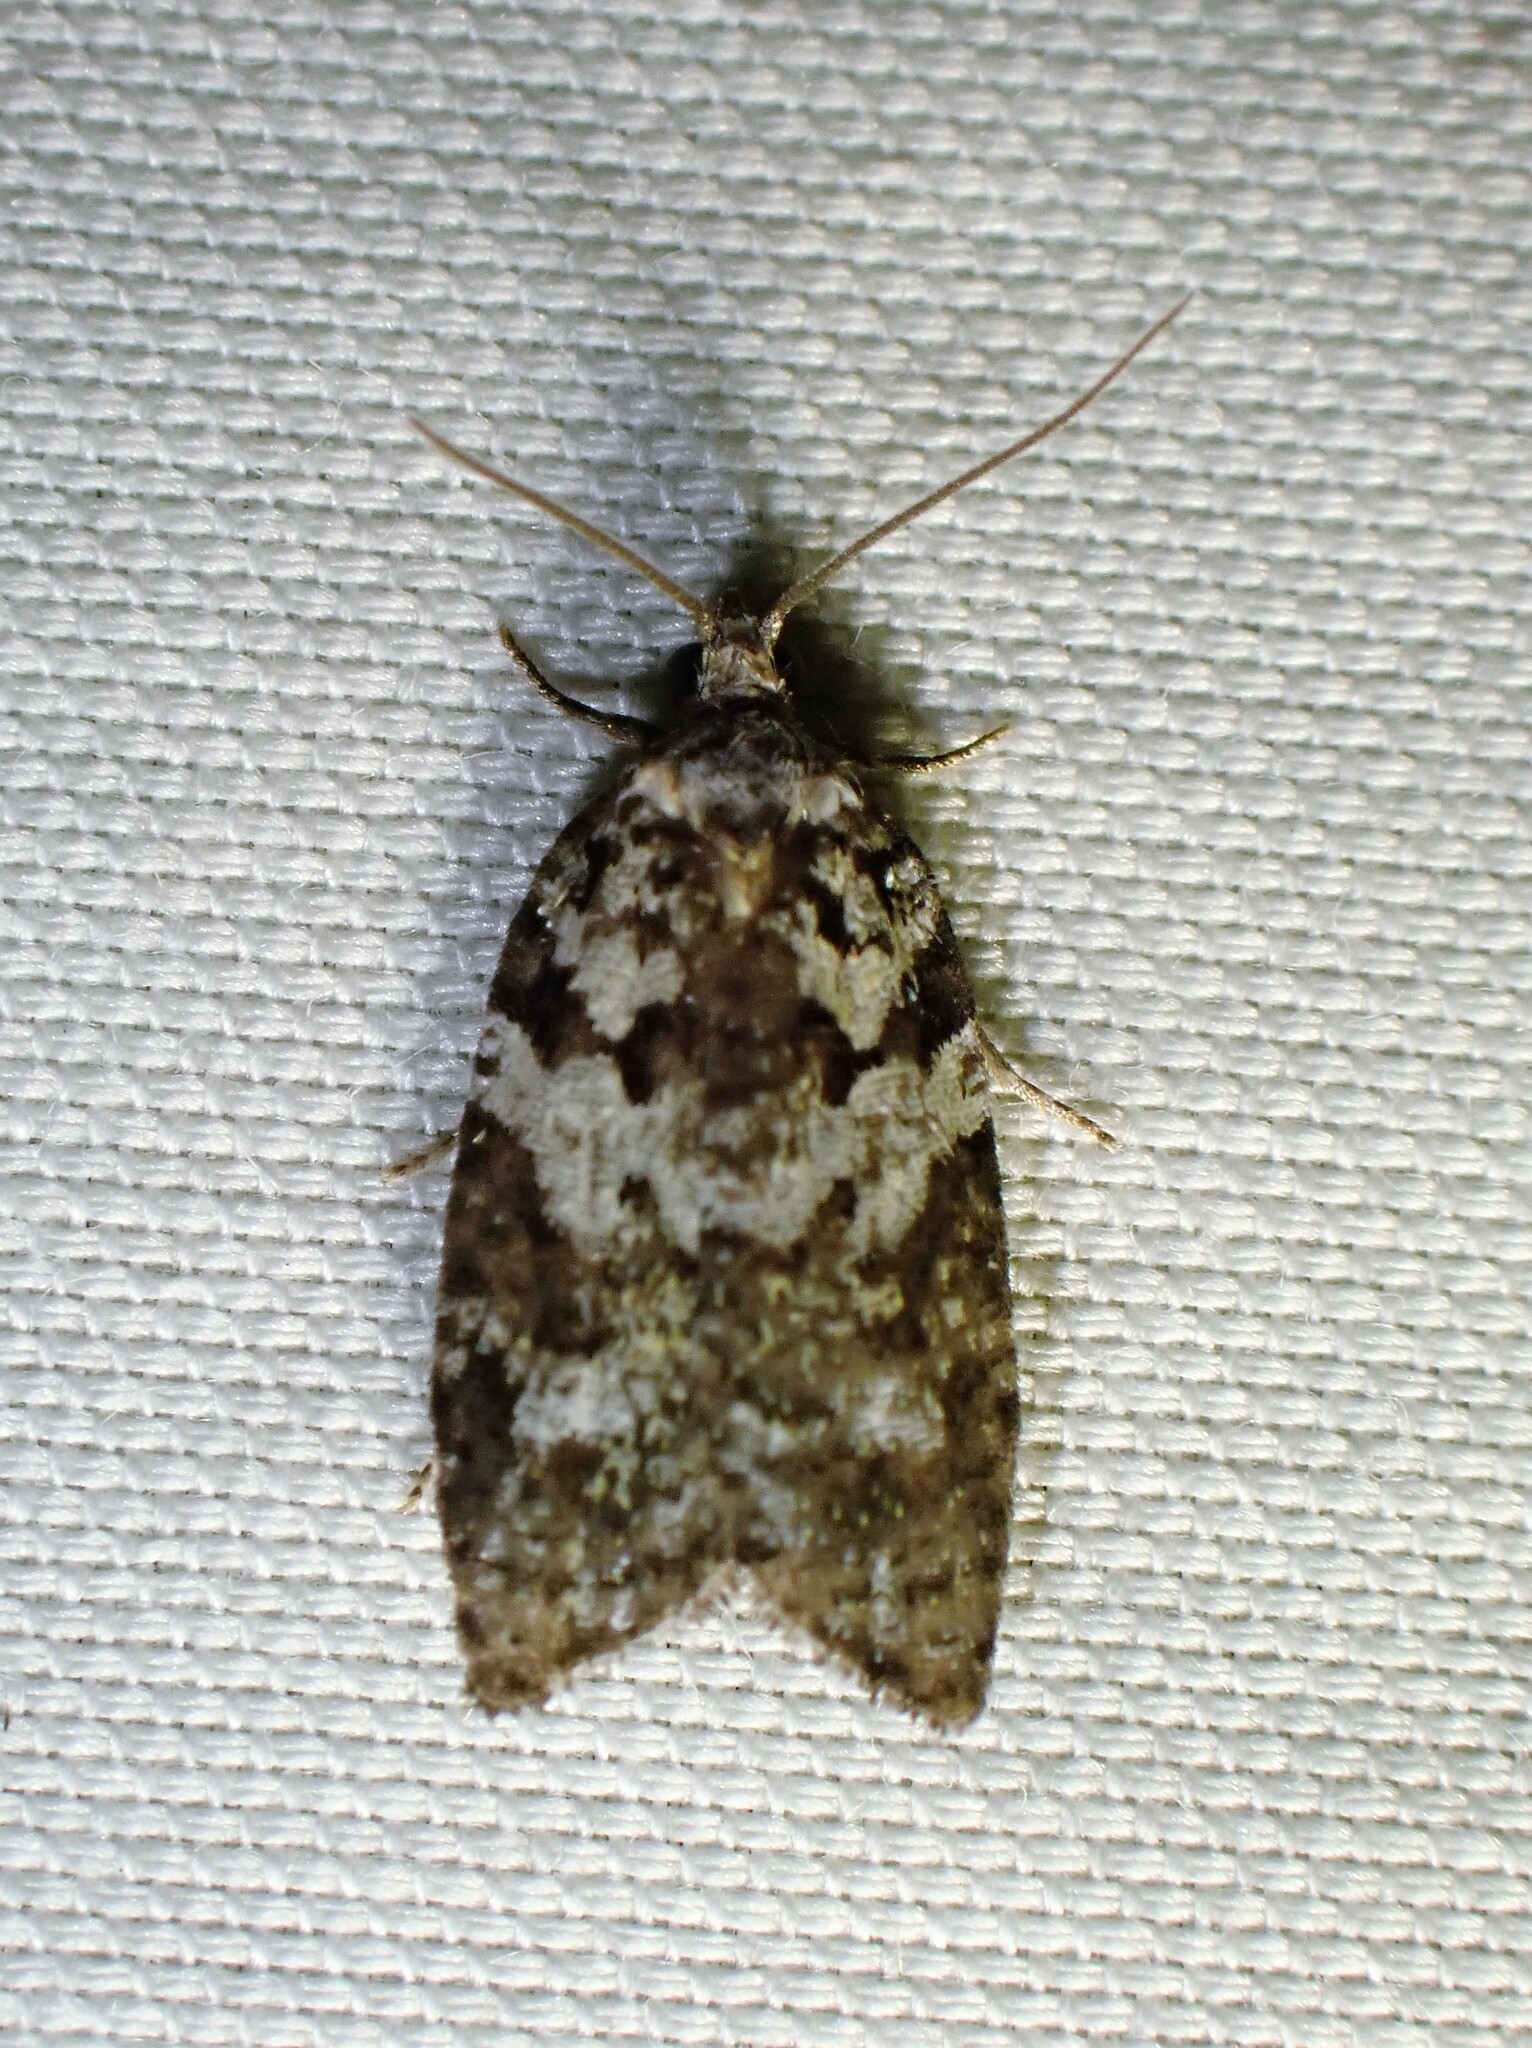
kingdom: Animalia
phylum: Arthropoda
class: Insecta
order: Lepidoptera
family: Tortricidae
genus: Acleris
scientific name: Acleris variana
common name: Eastern black-headed budworm moth
